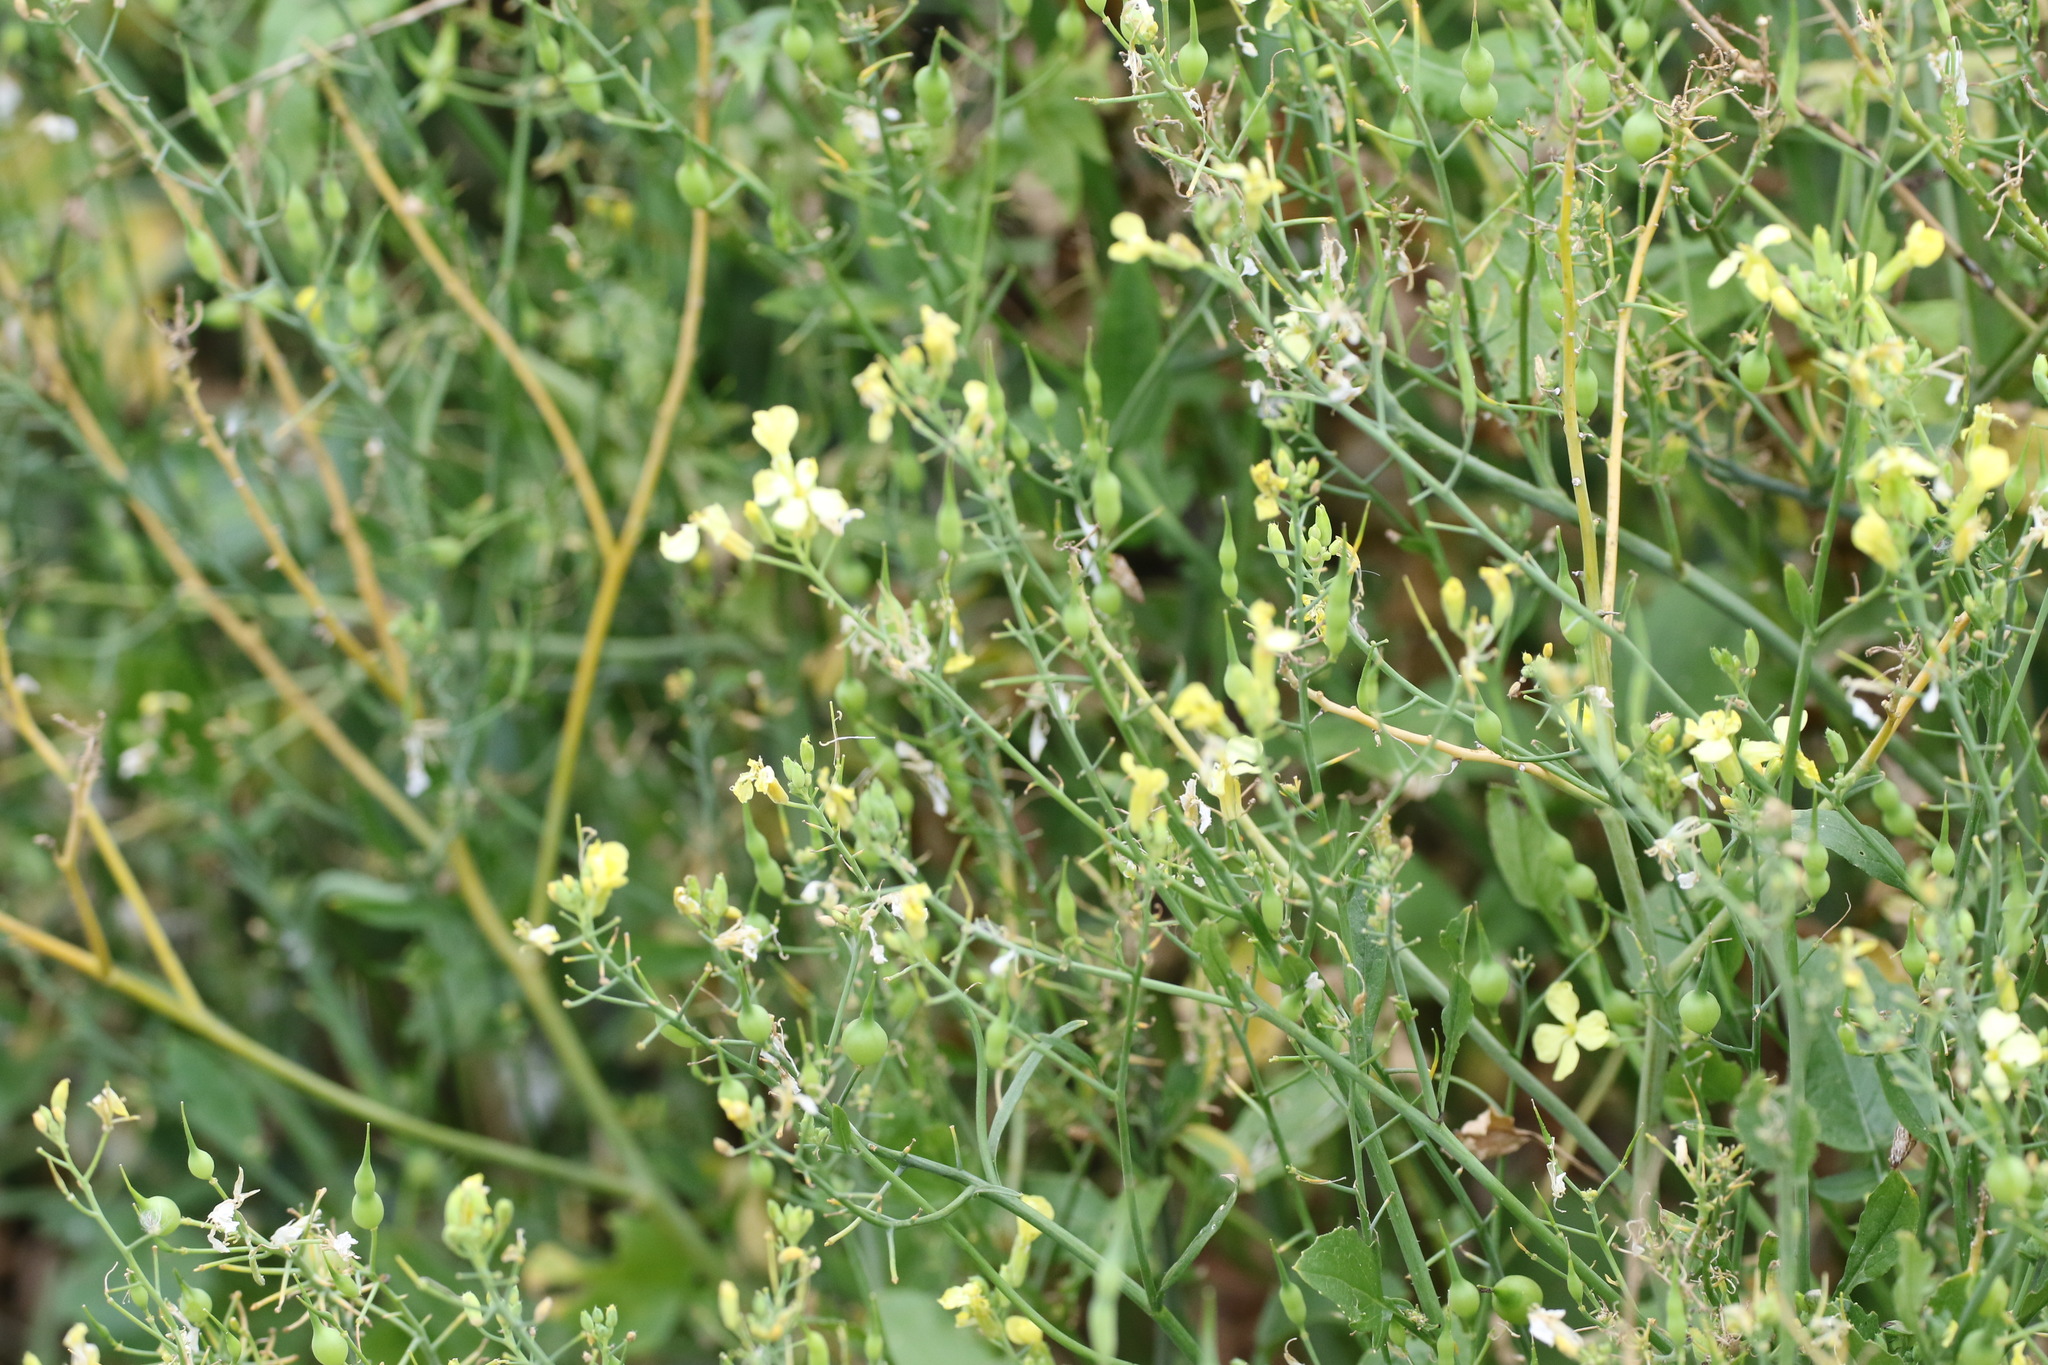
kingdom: Plantae
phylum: Tracheophyta
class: Magnoliopsida
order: Brassicales
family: Brassicaceae
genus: Raphanus
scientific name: Raphanus raphanistrum
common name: Wild radish
